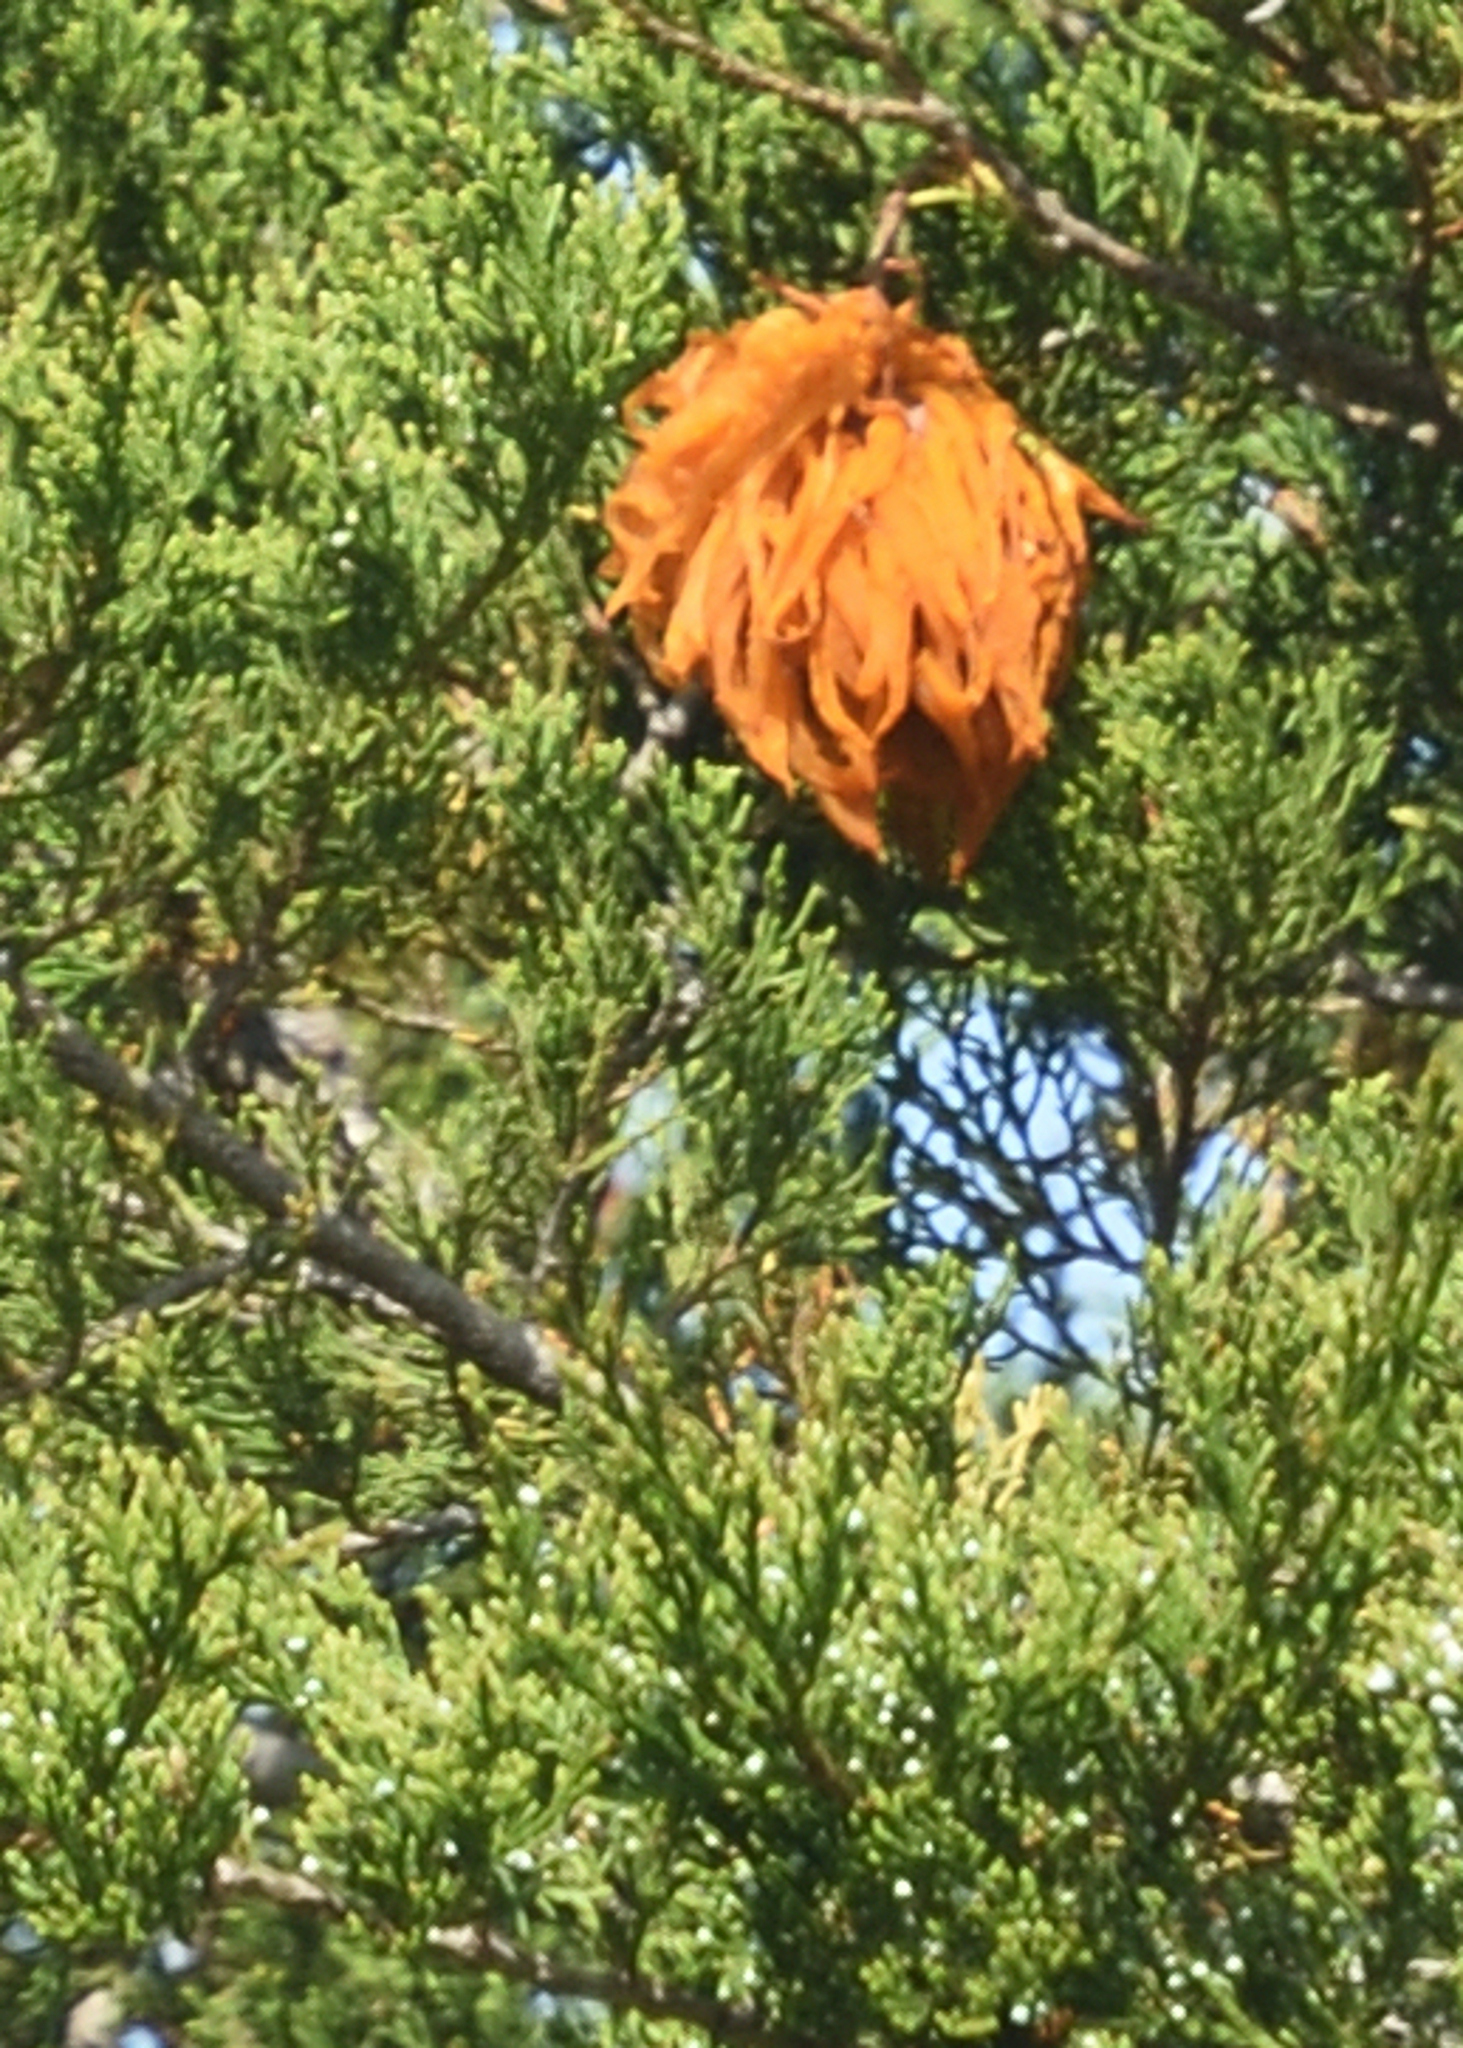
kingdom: Fungi
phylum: Basidiomycota
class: Pucciniomycetes
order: Pucciniales
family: Gymnosporangiaceae
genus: Gymnosporangium
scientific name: Gymnosporangium juniperi-virginianae
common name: Juniper-apple rust
